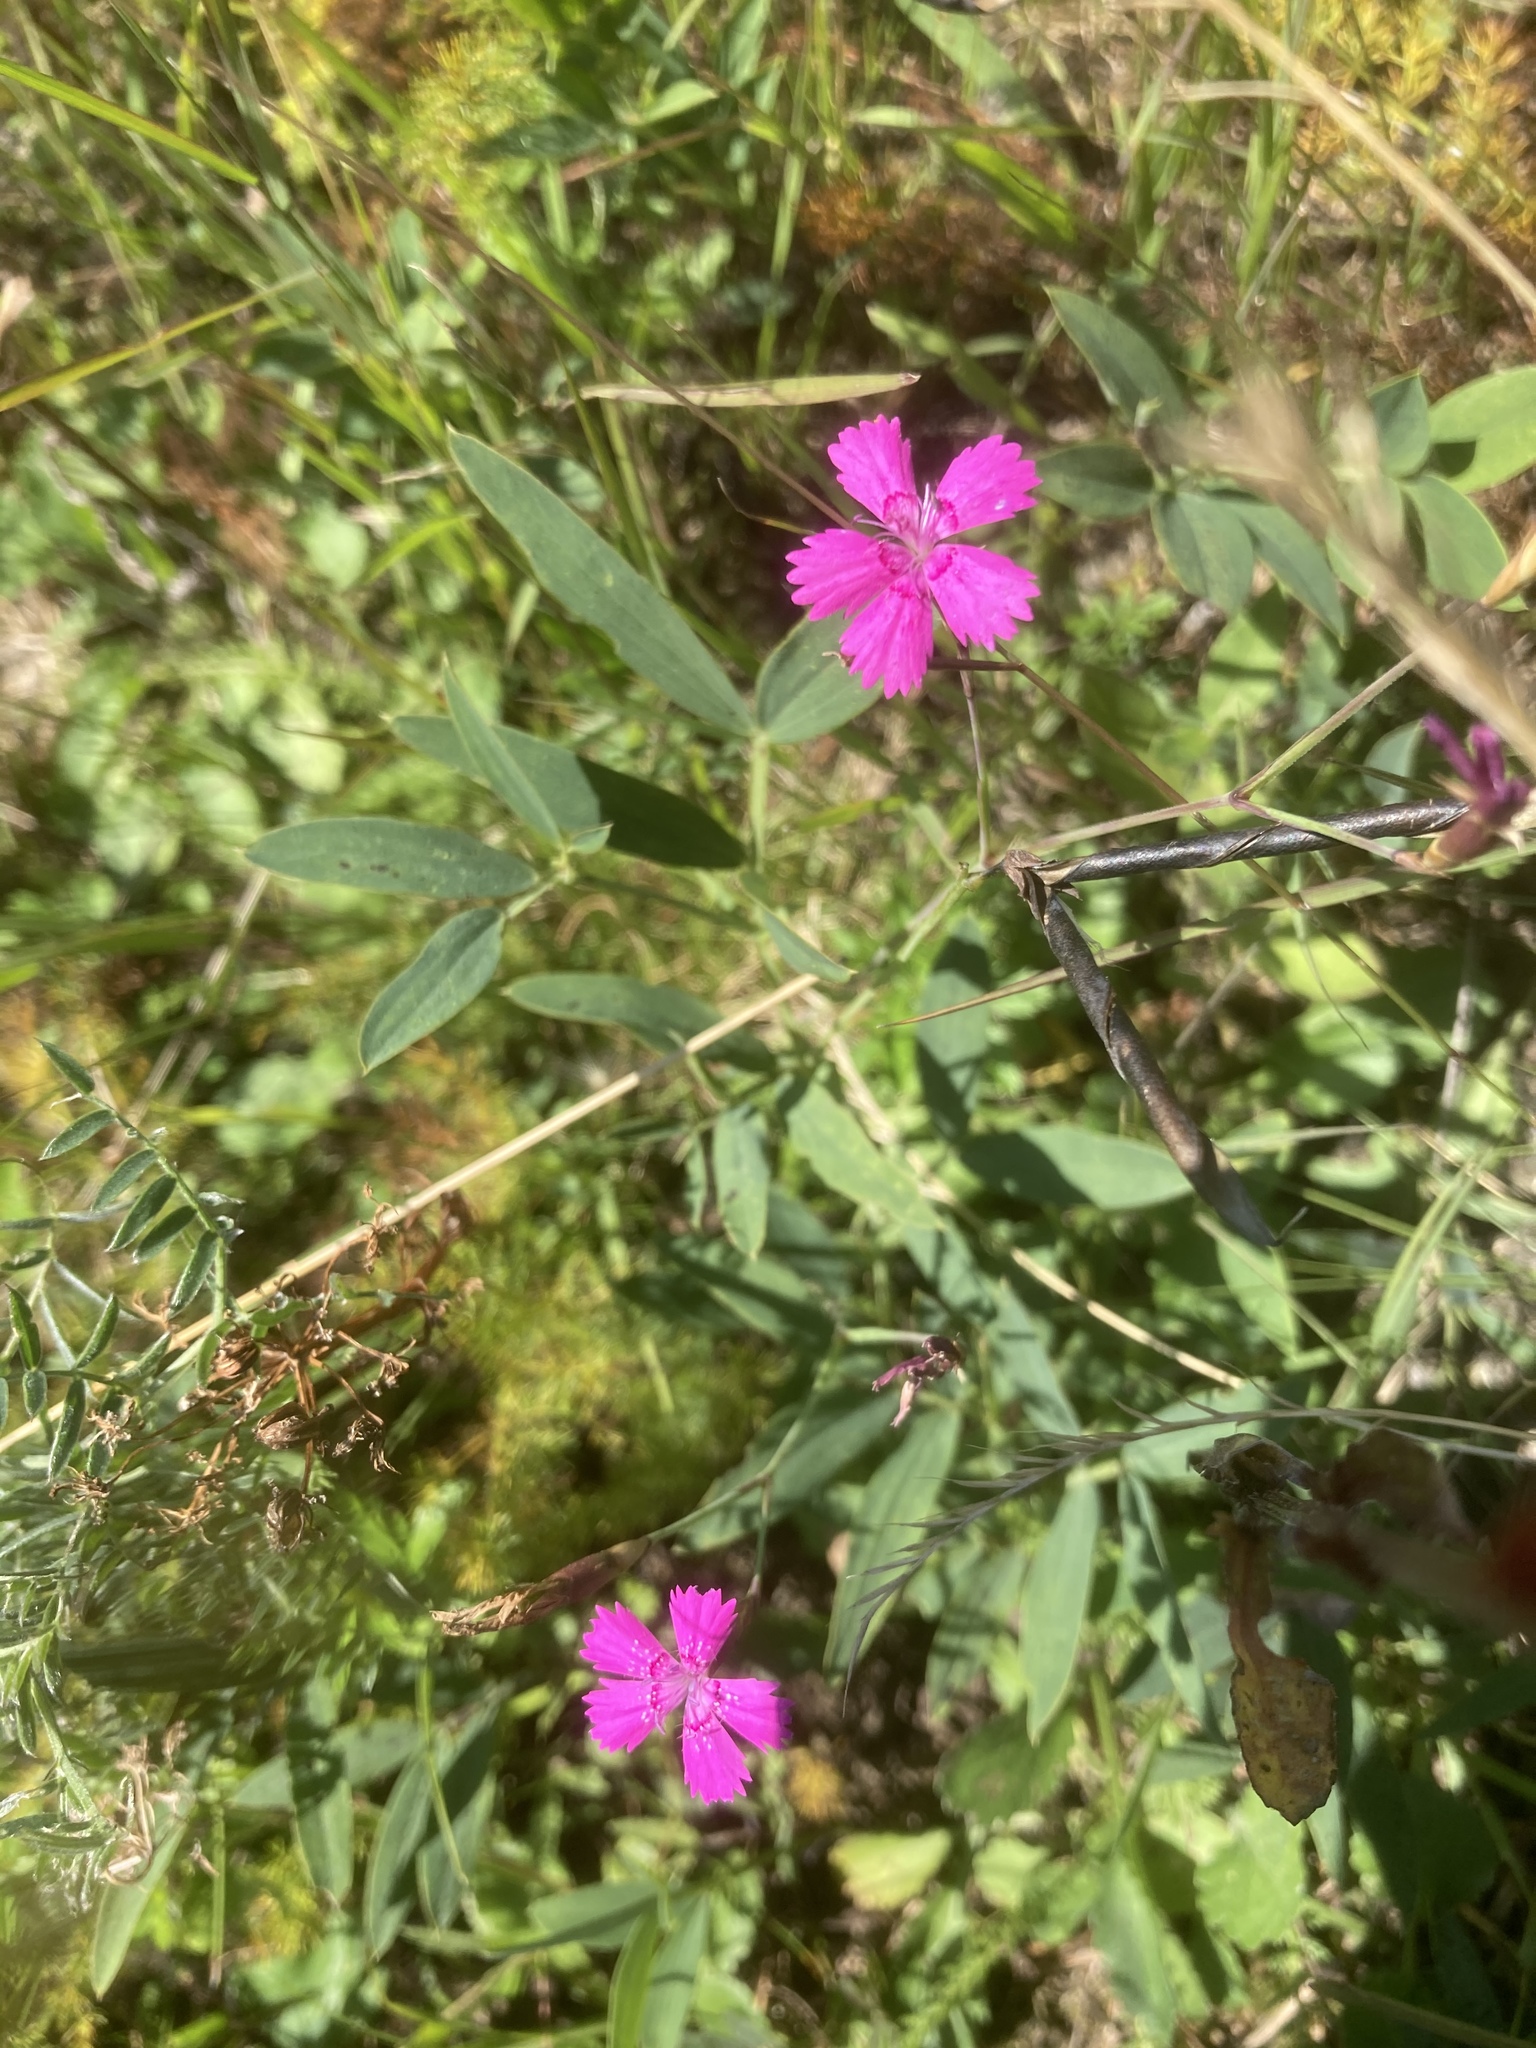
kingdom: Plantae
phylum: Tracheophyta
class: Magnoliopsida
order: Caryophyllales
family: Caryophyllaceae
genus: Dianthus
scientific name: Dianthus deltoides
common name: Maiden pink
